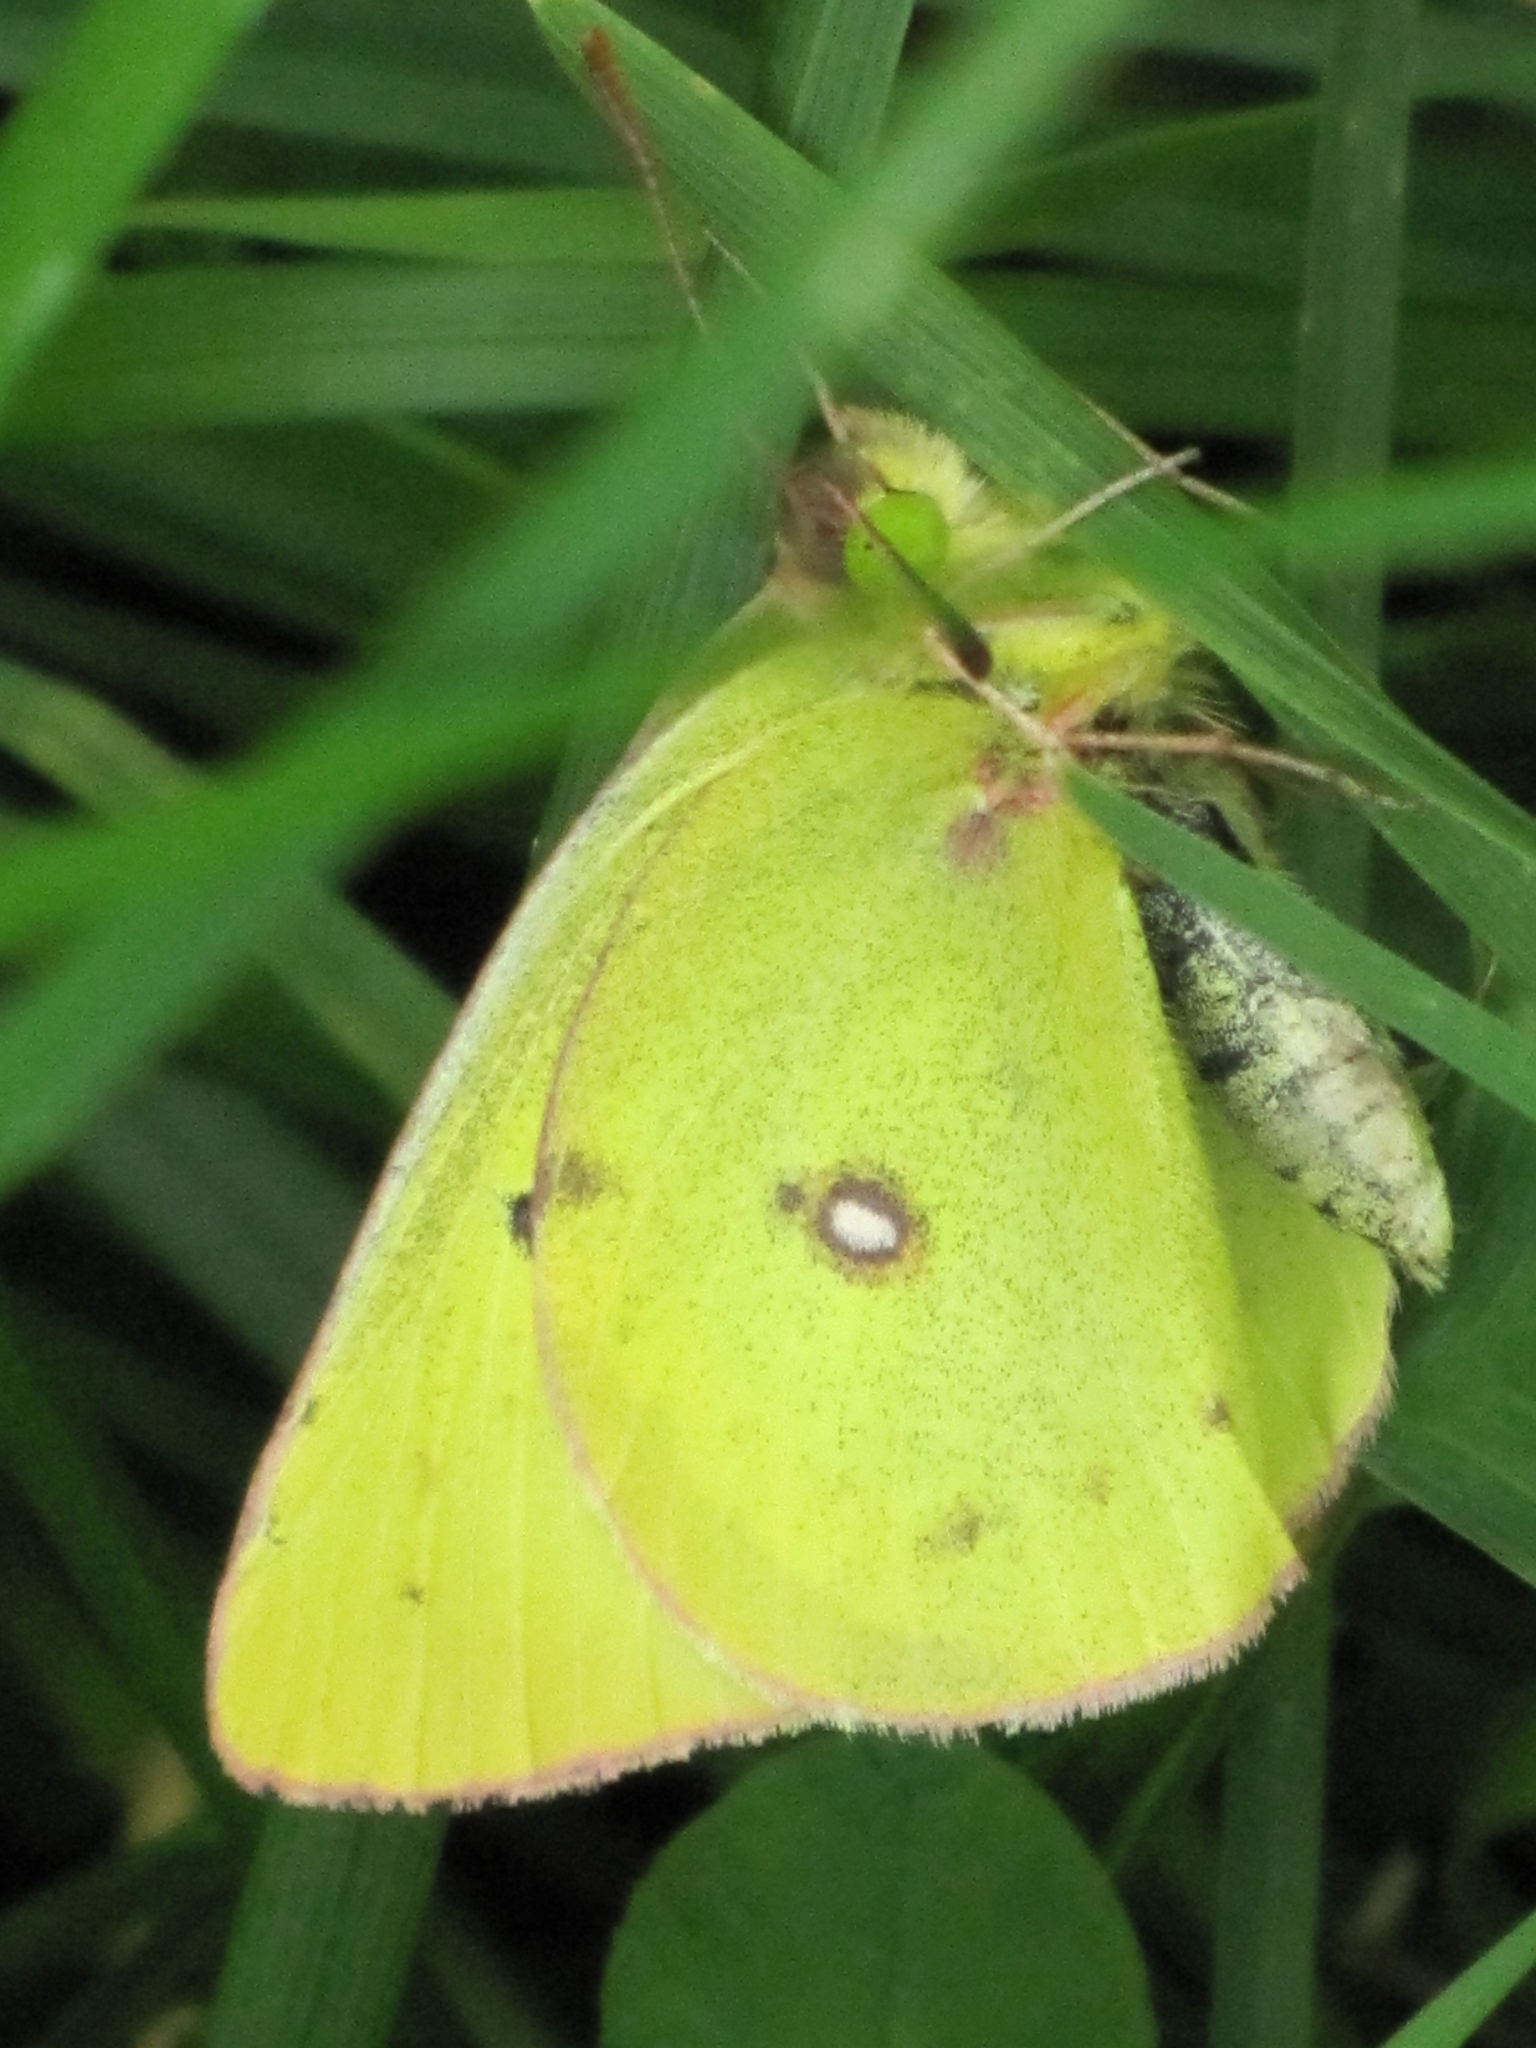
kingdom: Animalia
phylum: Arthropoda
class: Insecta
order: Lepidoptera
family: Pieridae
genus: Colias
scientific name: Colias philodice
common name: Clouded sulphur
